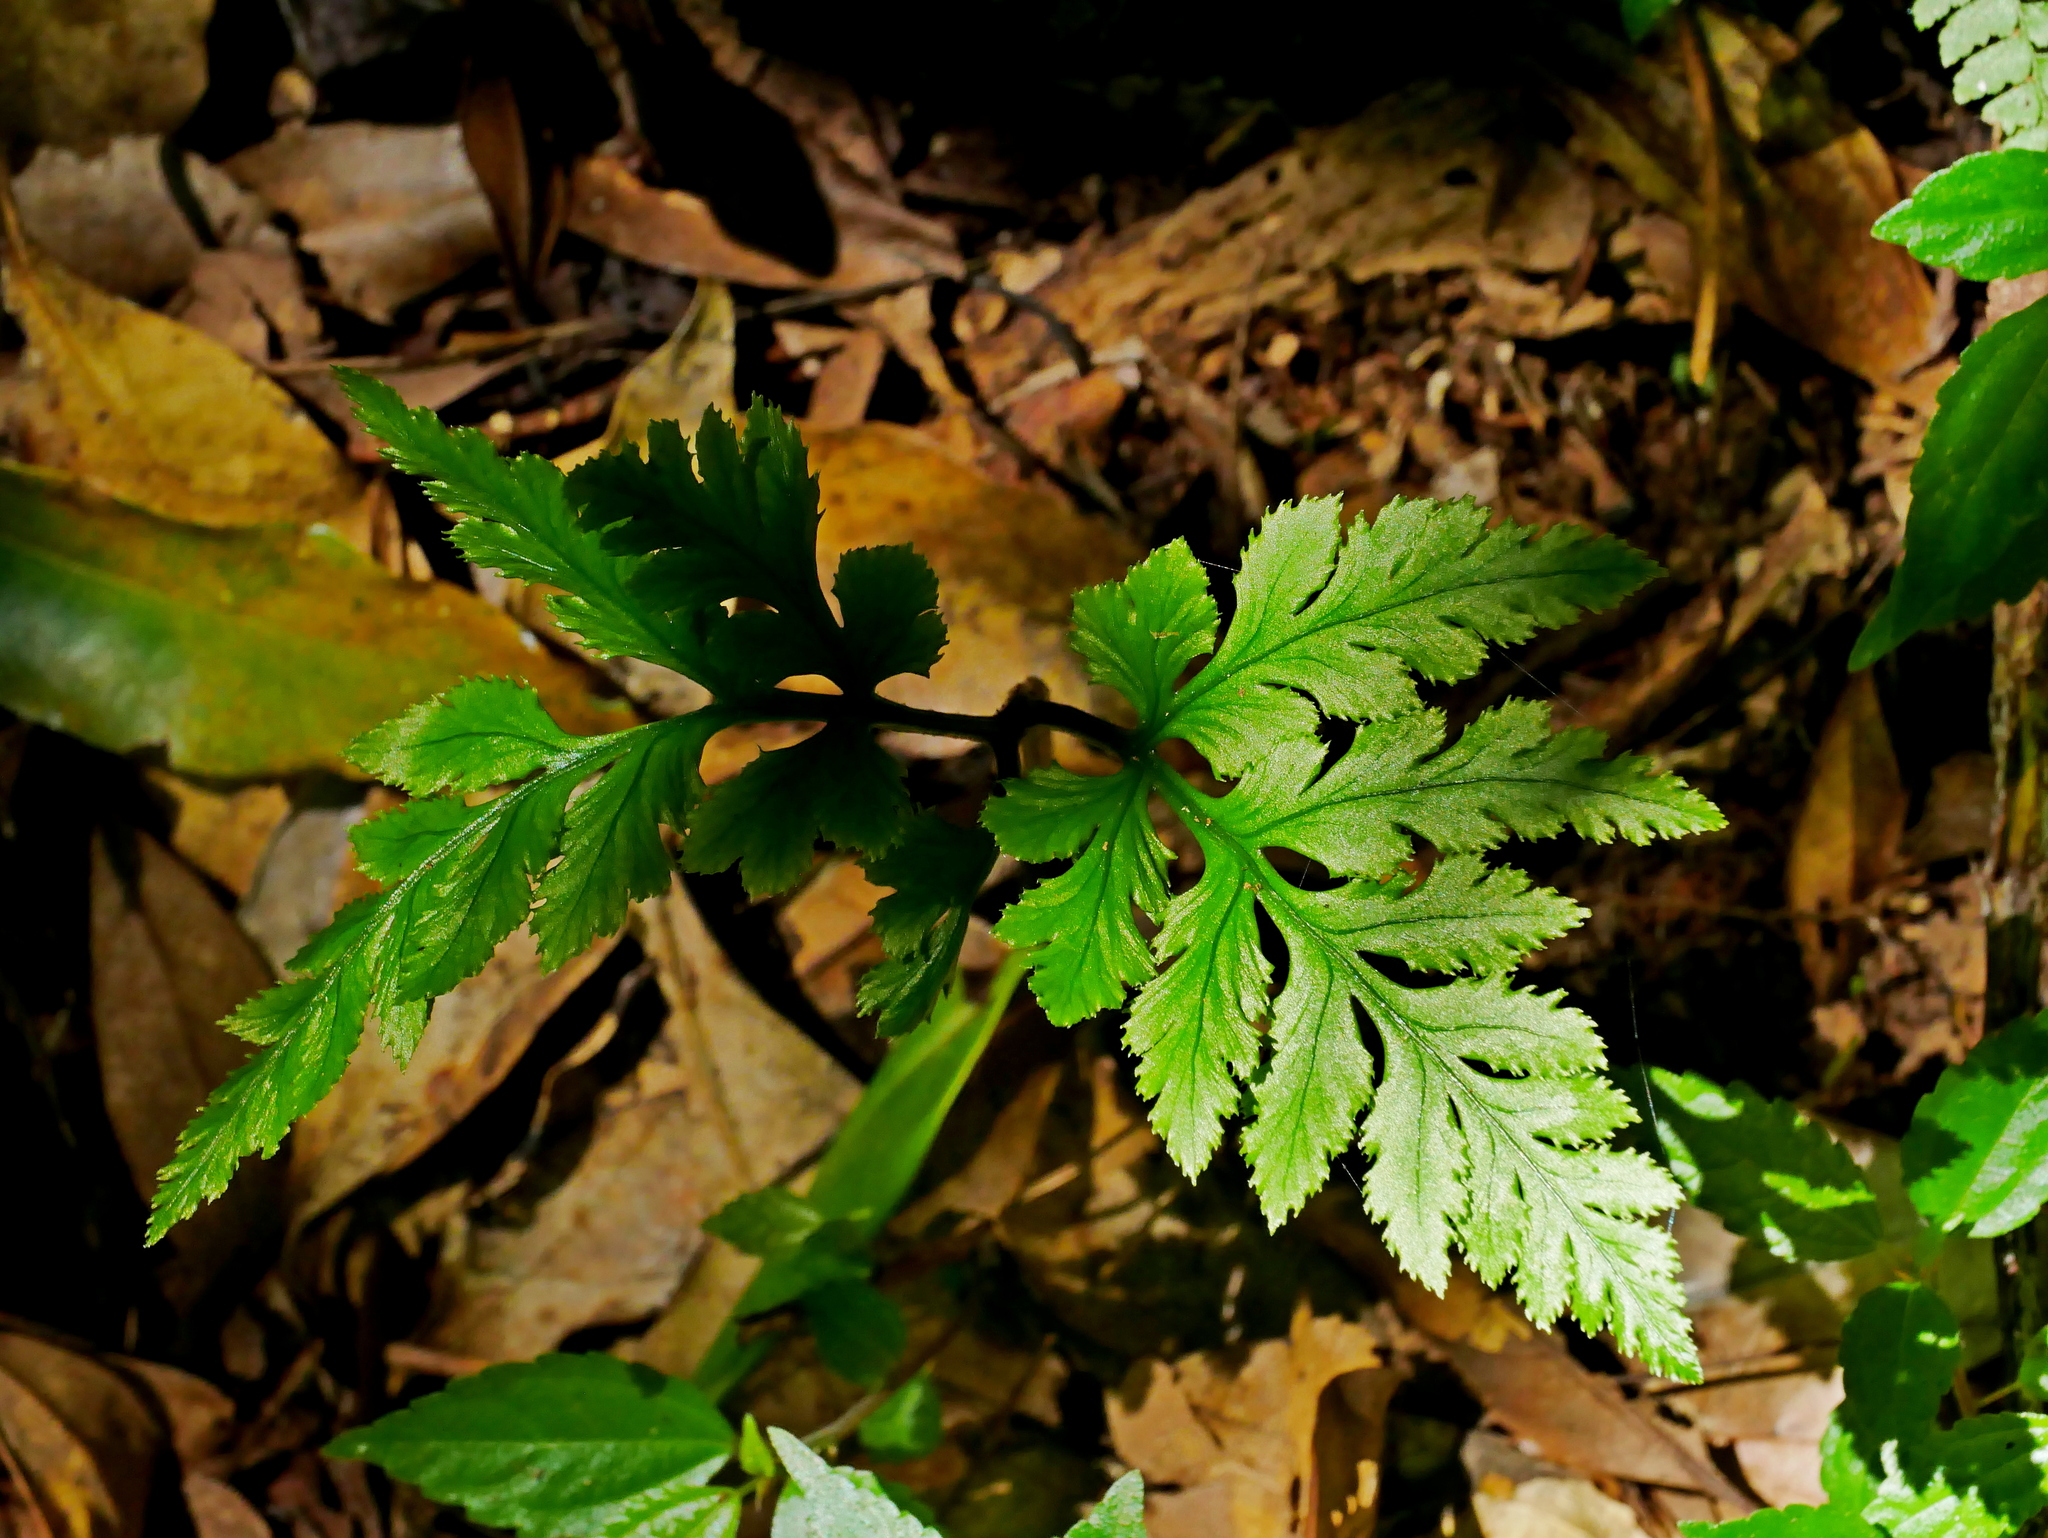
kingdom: Plantae
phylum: Tracheophyta
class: Polypodiopsida
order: Ophioglossales
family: Ophioglossaceae
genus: Sceptridium
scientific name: Sceptridium formosanum
